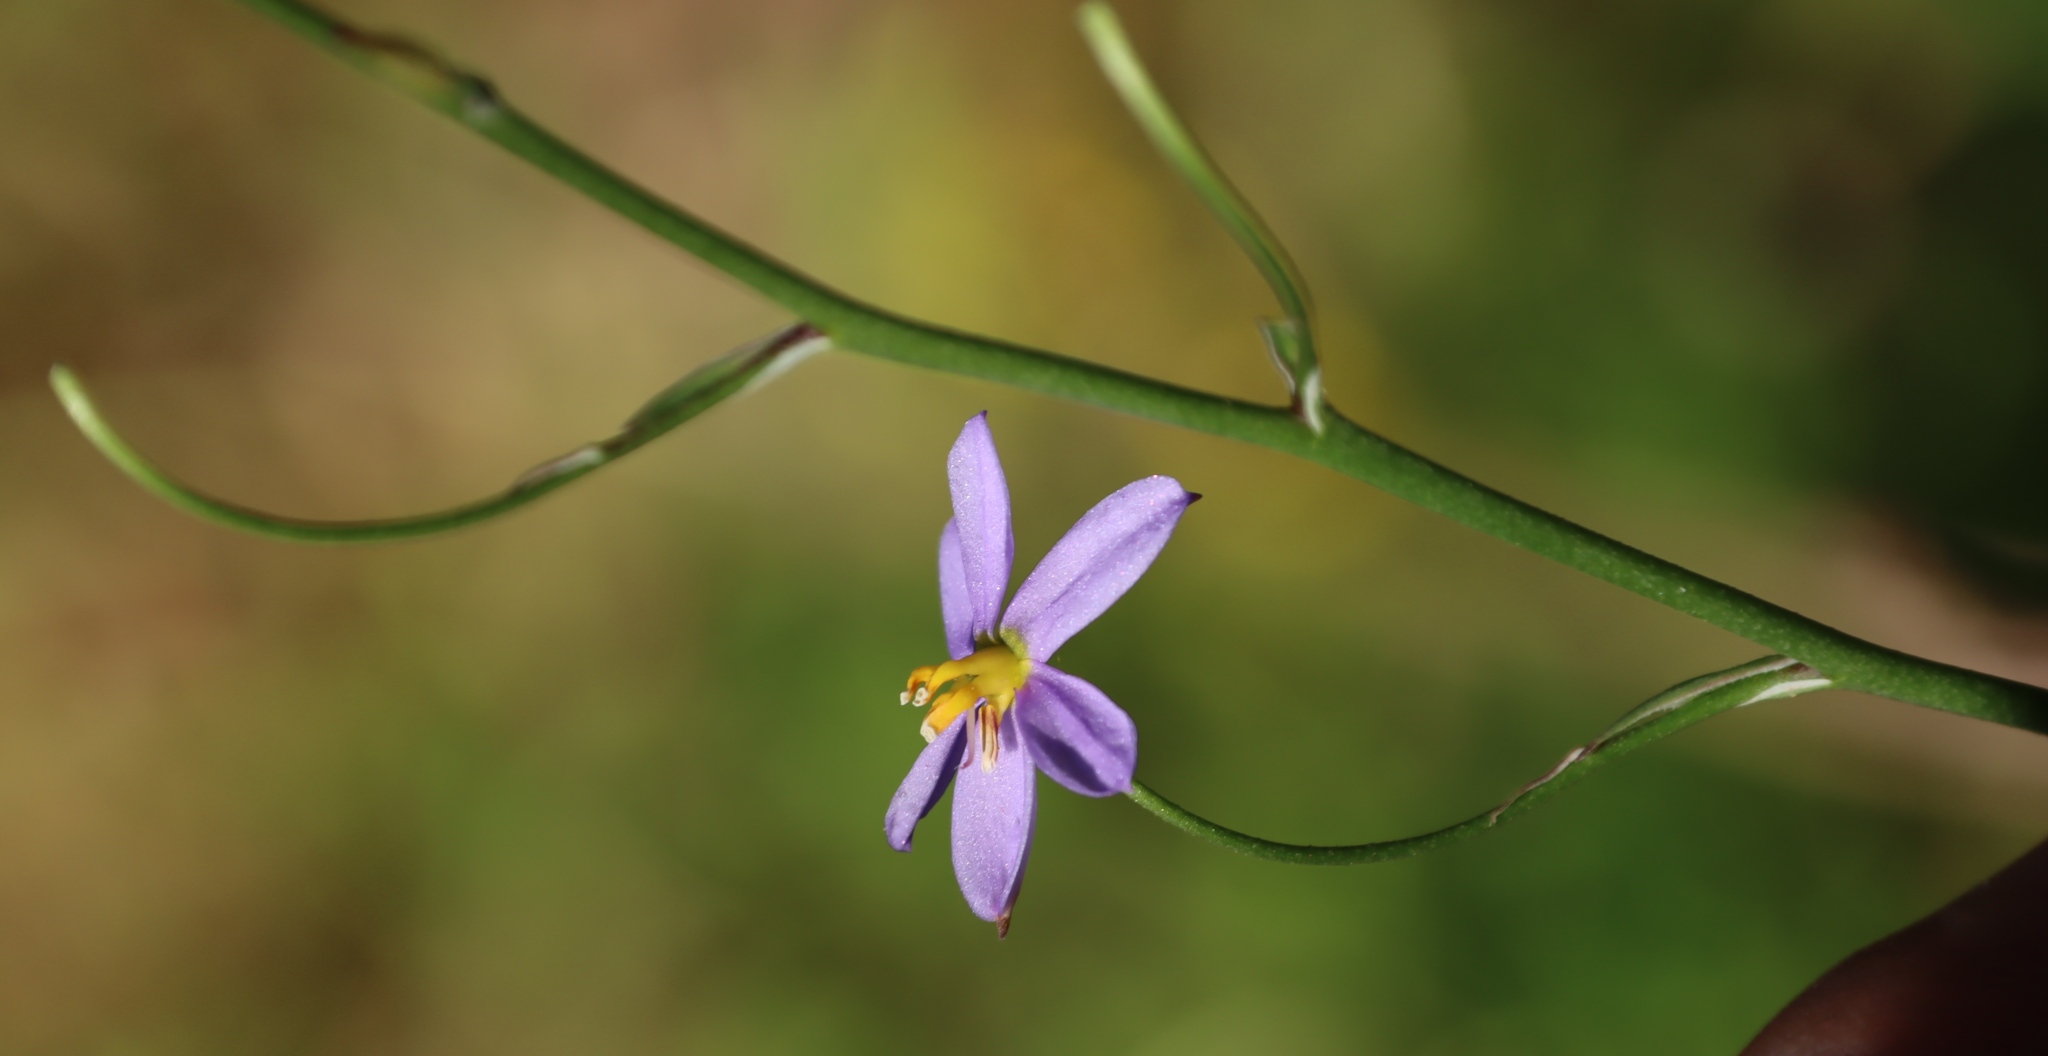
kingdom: Plantae
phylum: Tracheophyta
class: Liliopsida
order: Asparagales
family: Tecophilaeaceae
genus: Cyanella
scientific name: Cyanella hyacinthoides
